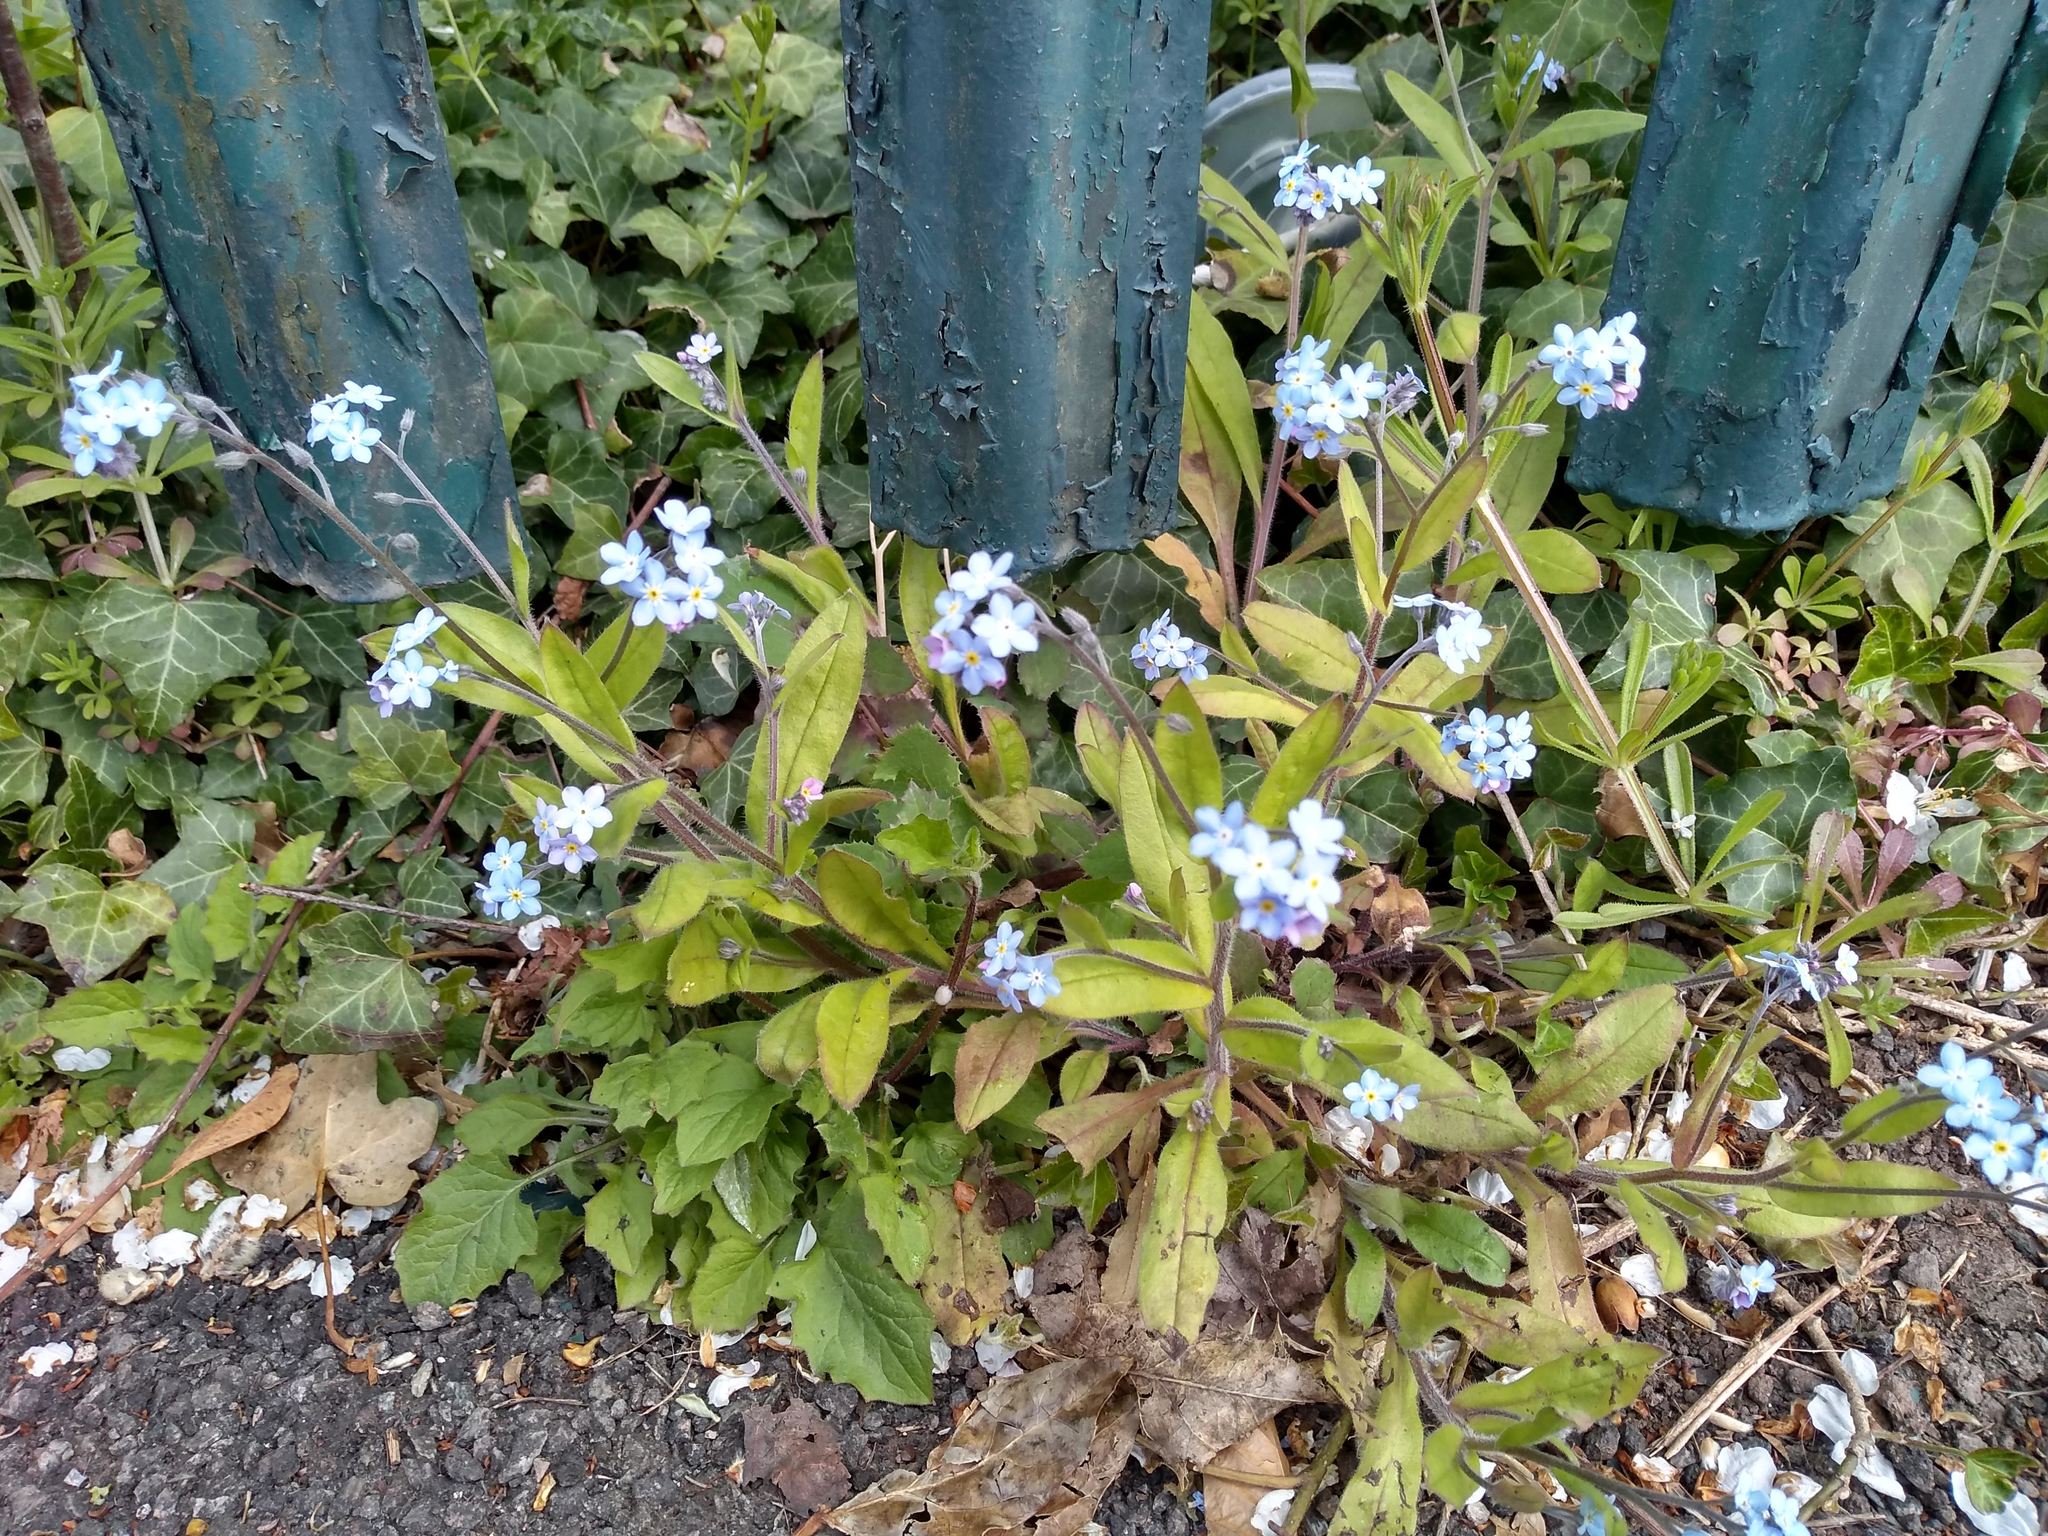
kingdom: Plantae
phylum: Tracheophyta
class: Magnoliopsida
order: Boraginales
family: Boraginaceae
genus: Myosotis
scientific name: Myosotis sylvatica
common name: Wood forget-me-not
